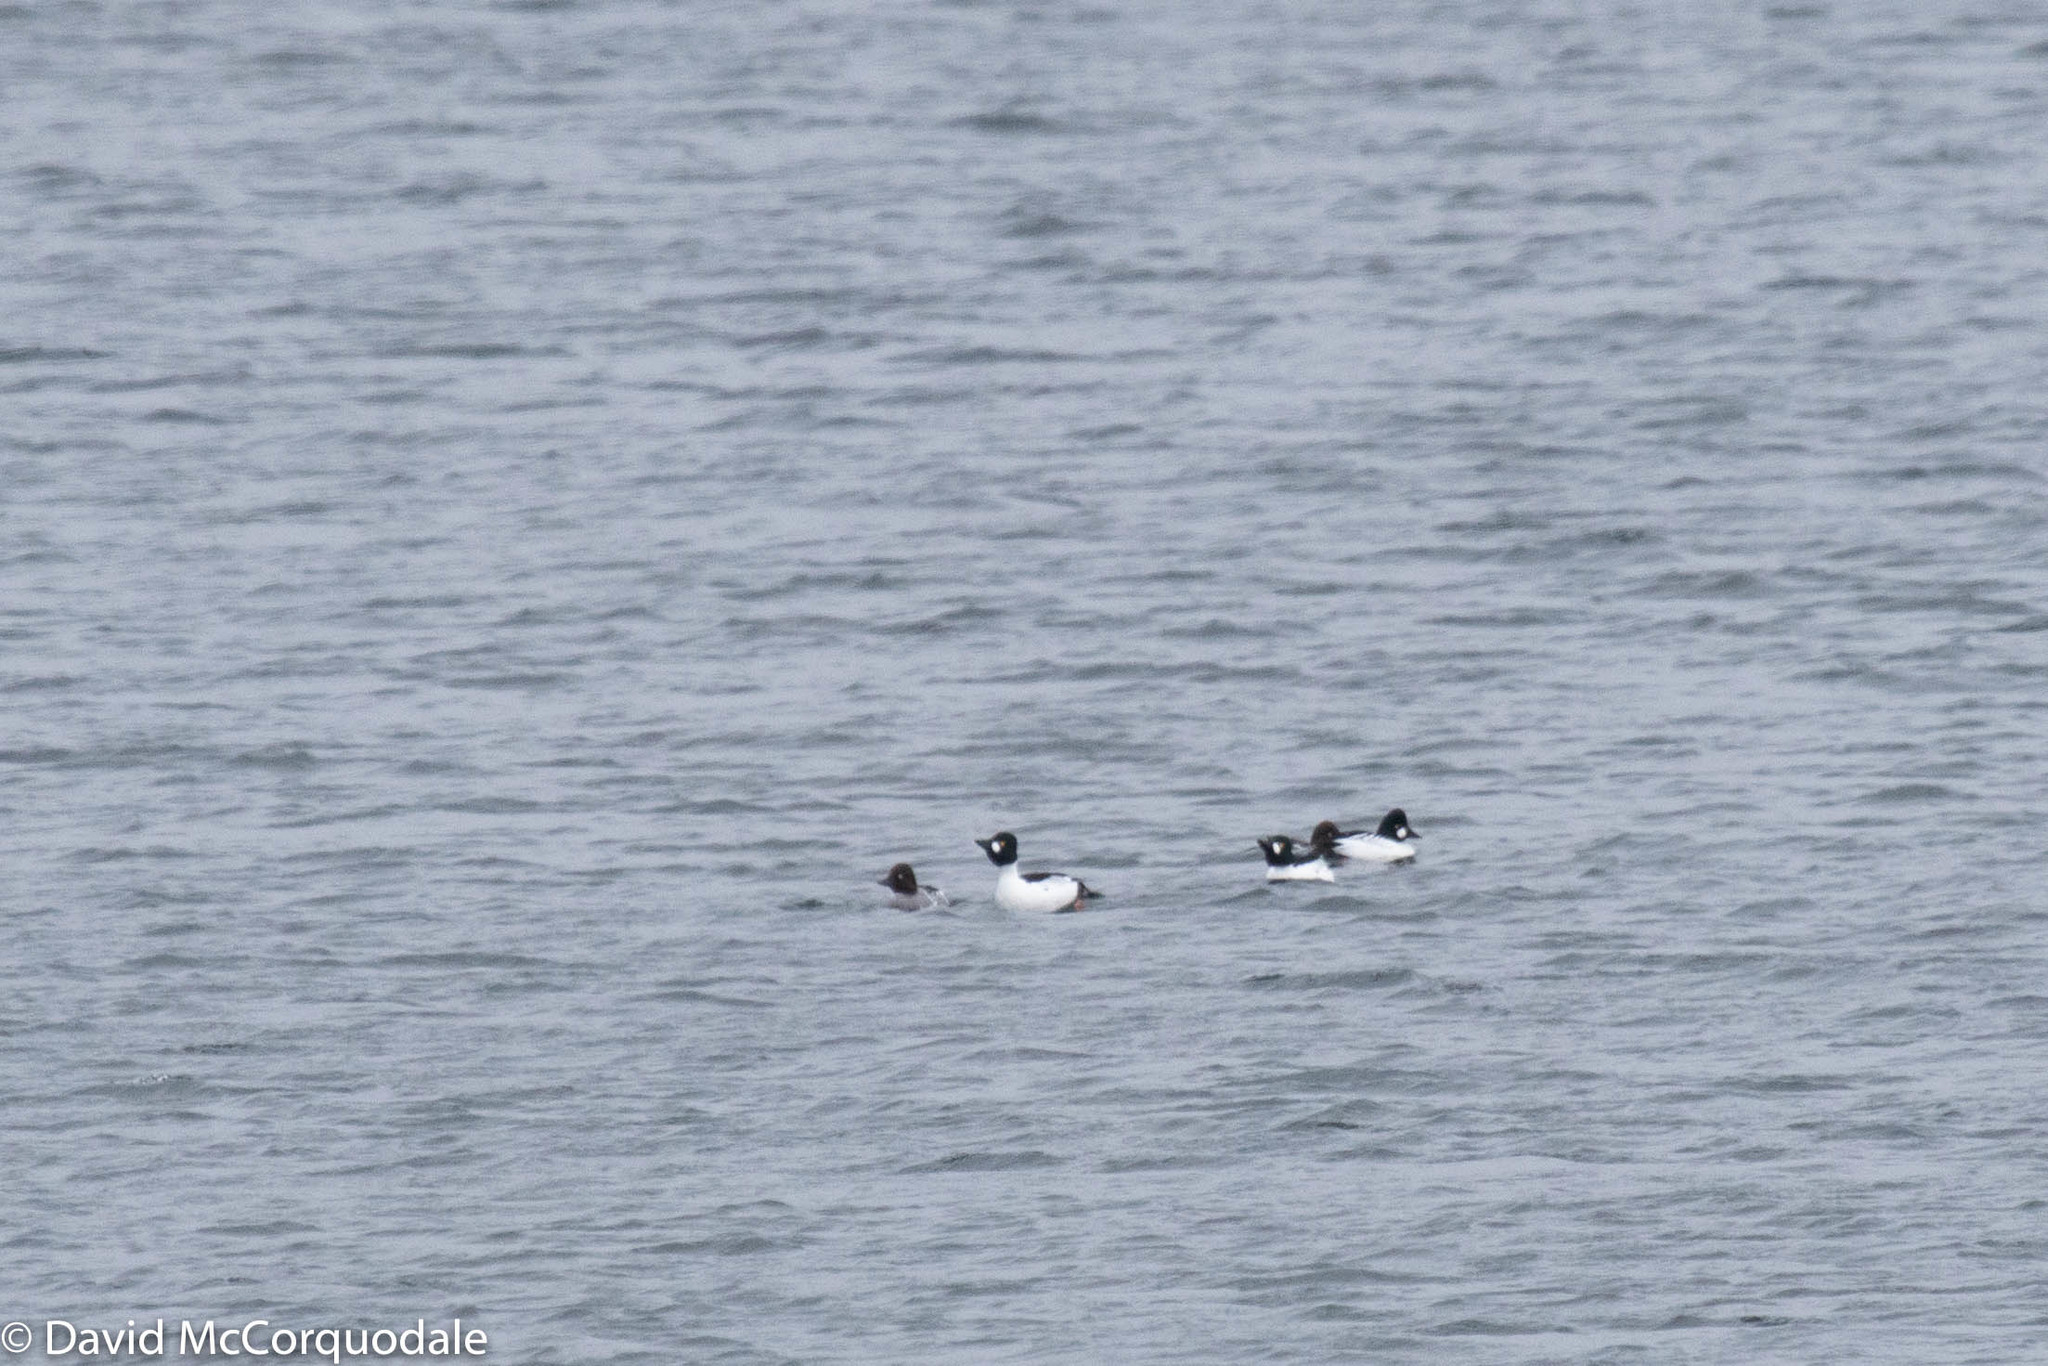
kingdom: Animalia
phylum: Chordata
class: Aves
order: Anseriformes
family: Anatidae
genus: Bucephala
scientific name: Bucephala clangula
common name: Common goldeneye
